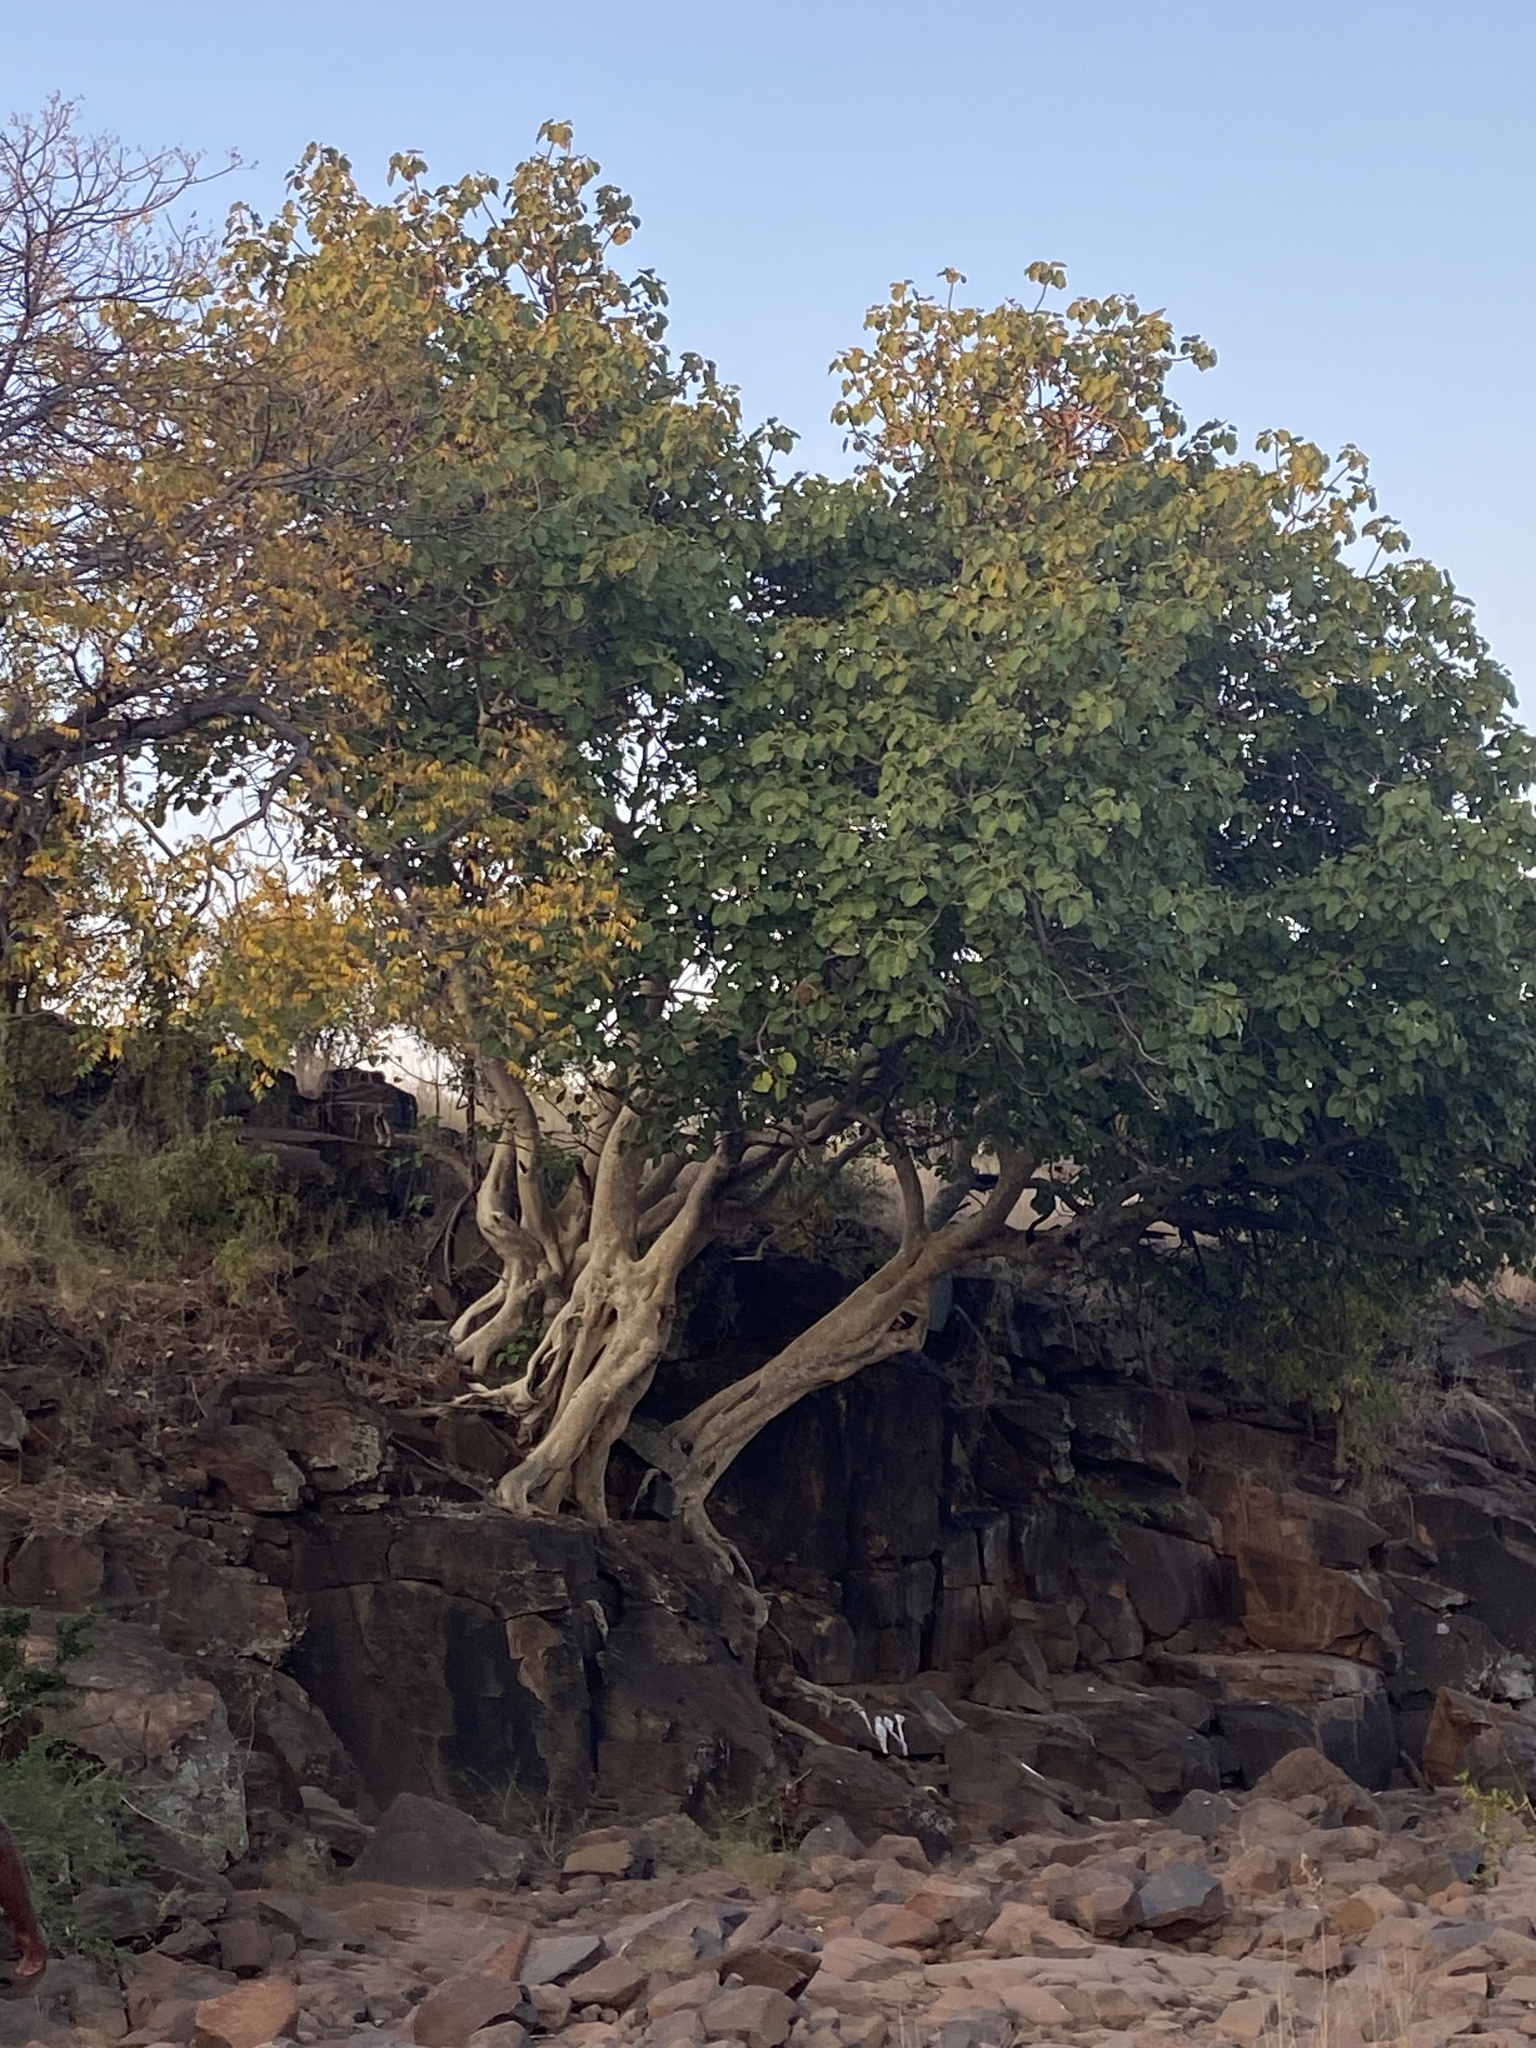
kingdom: Plantae
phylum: Tracheophyta
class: Magnoliopsida
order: Rosales
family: Moraceae
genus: Ficus
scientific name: Ficus abutilifolia
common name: Large-leaved rock fig
